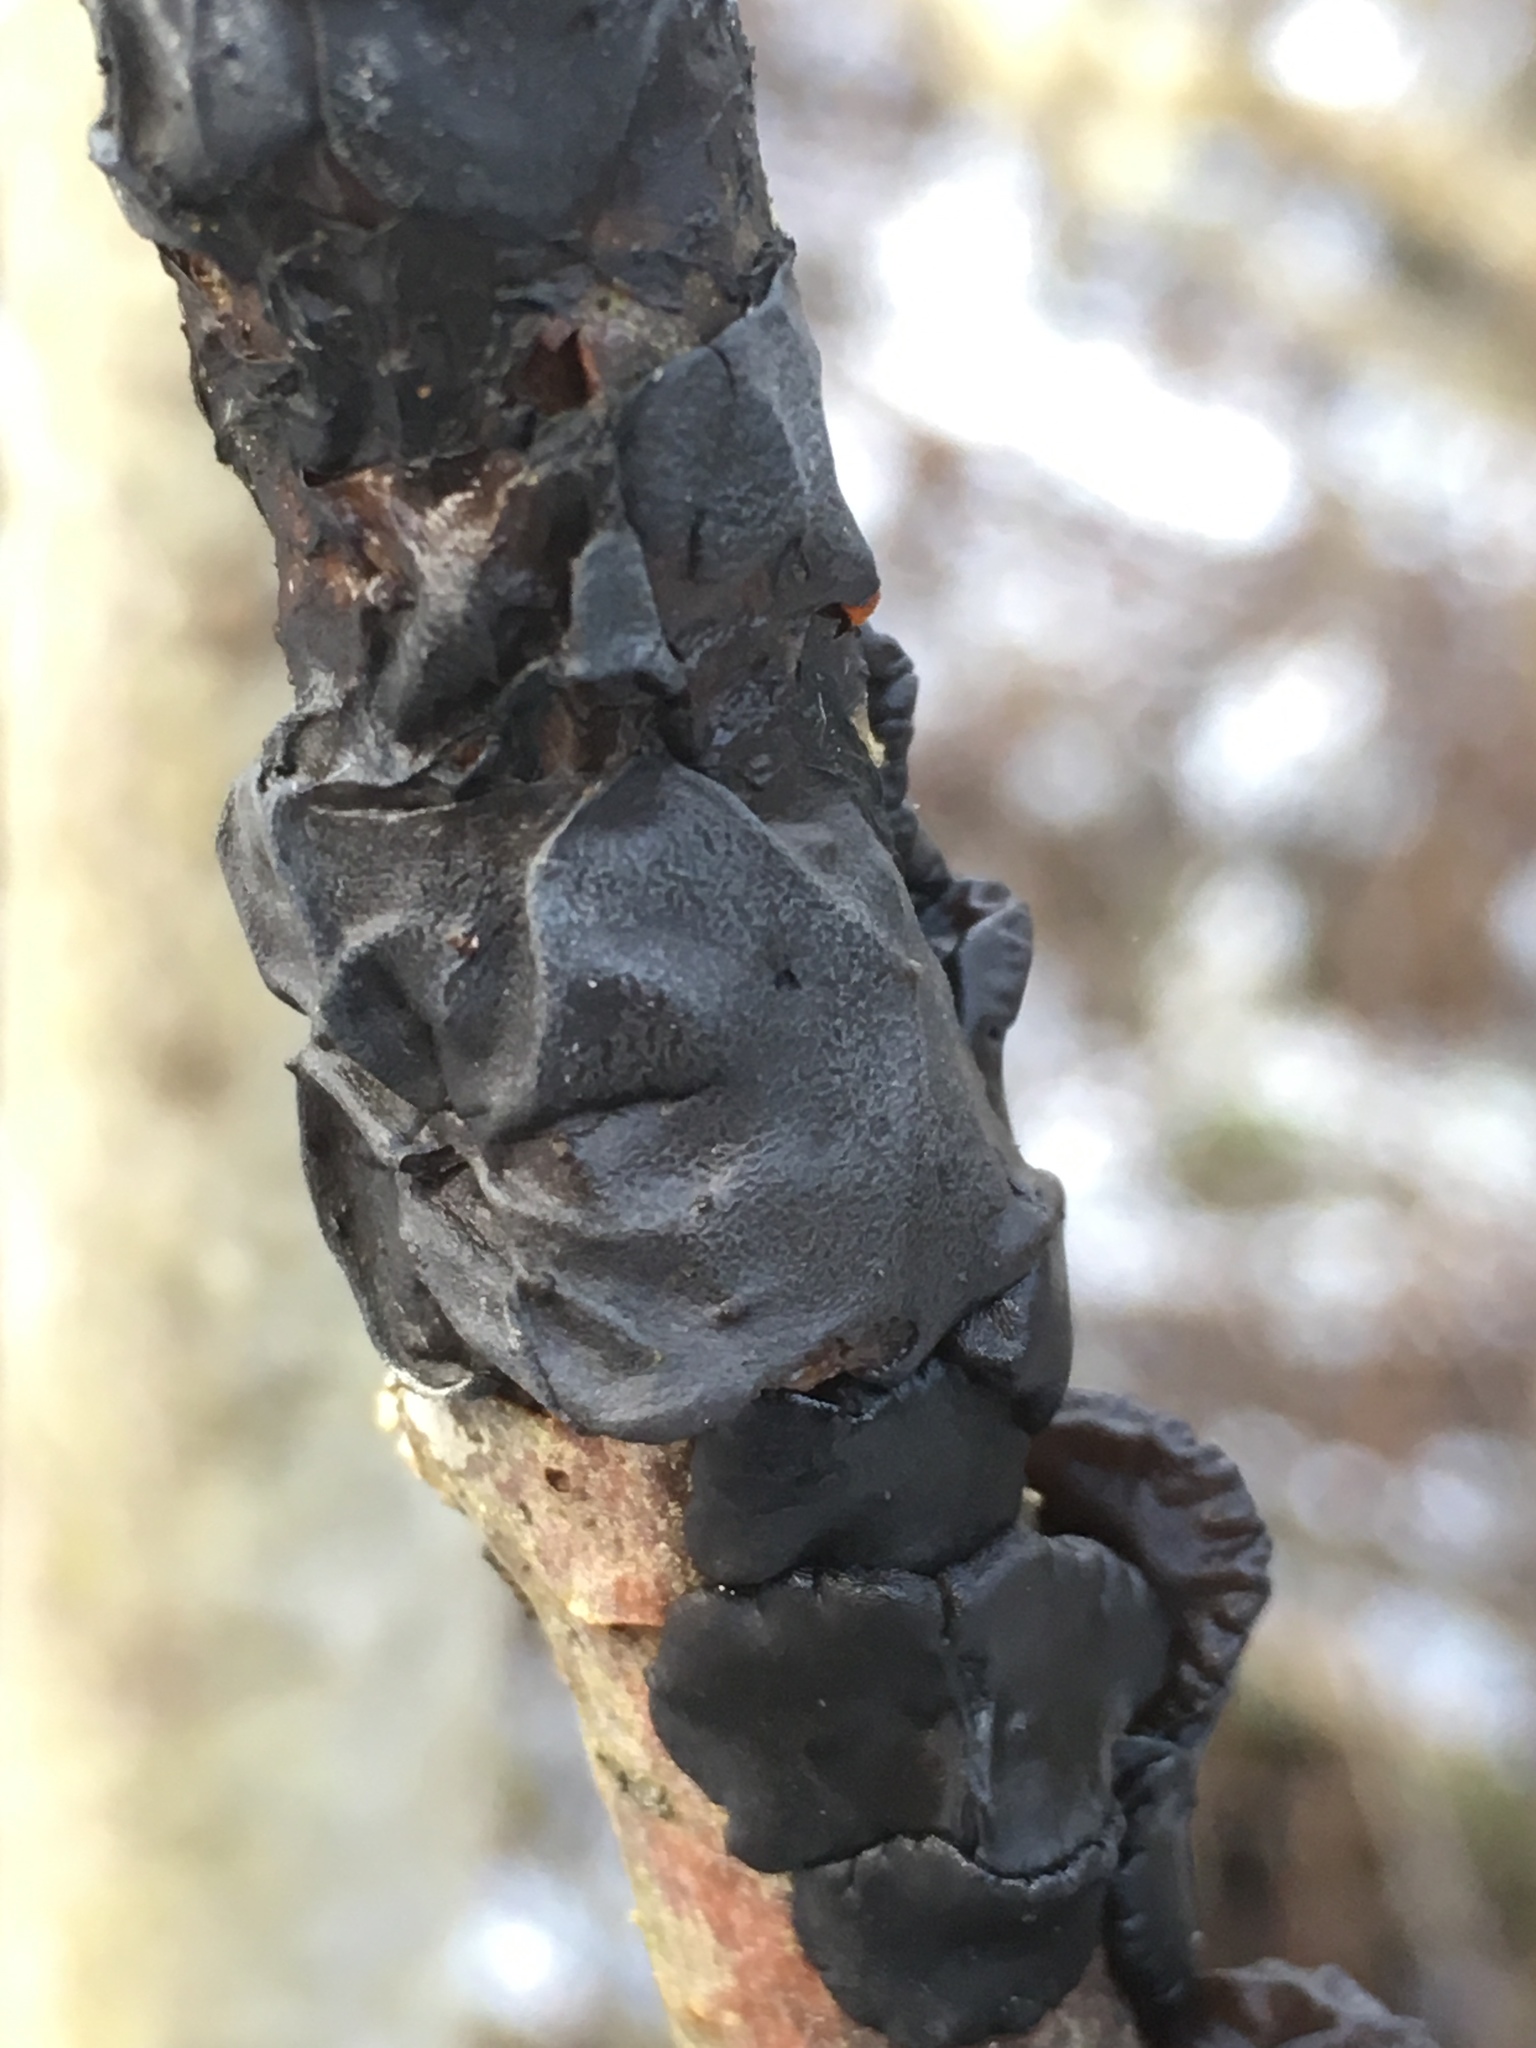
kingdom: Fungi
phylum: Basidiomycota
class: Agaricomycetes
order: Auriculariales
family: Auriculariaceae
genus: Exidia
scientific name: Exidia glandulosa
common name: Witches' butter
